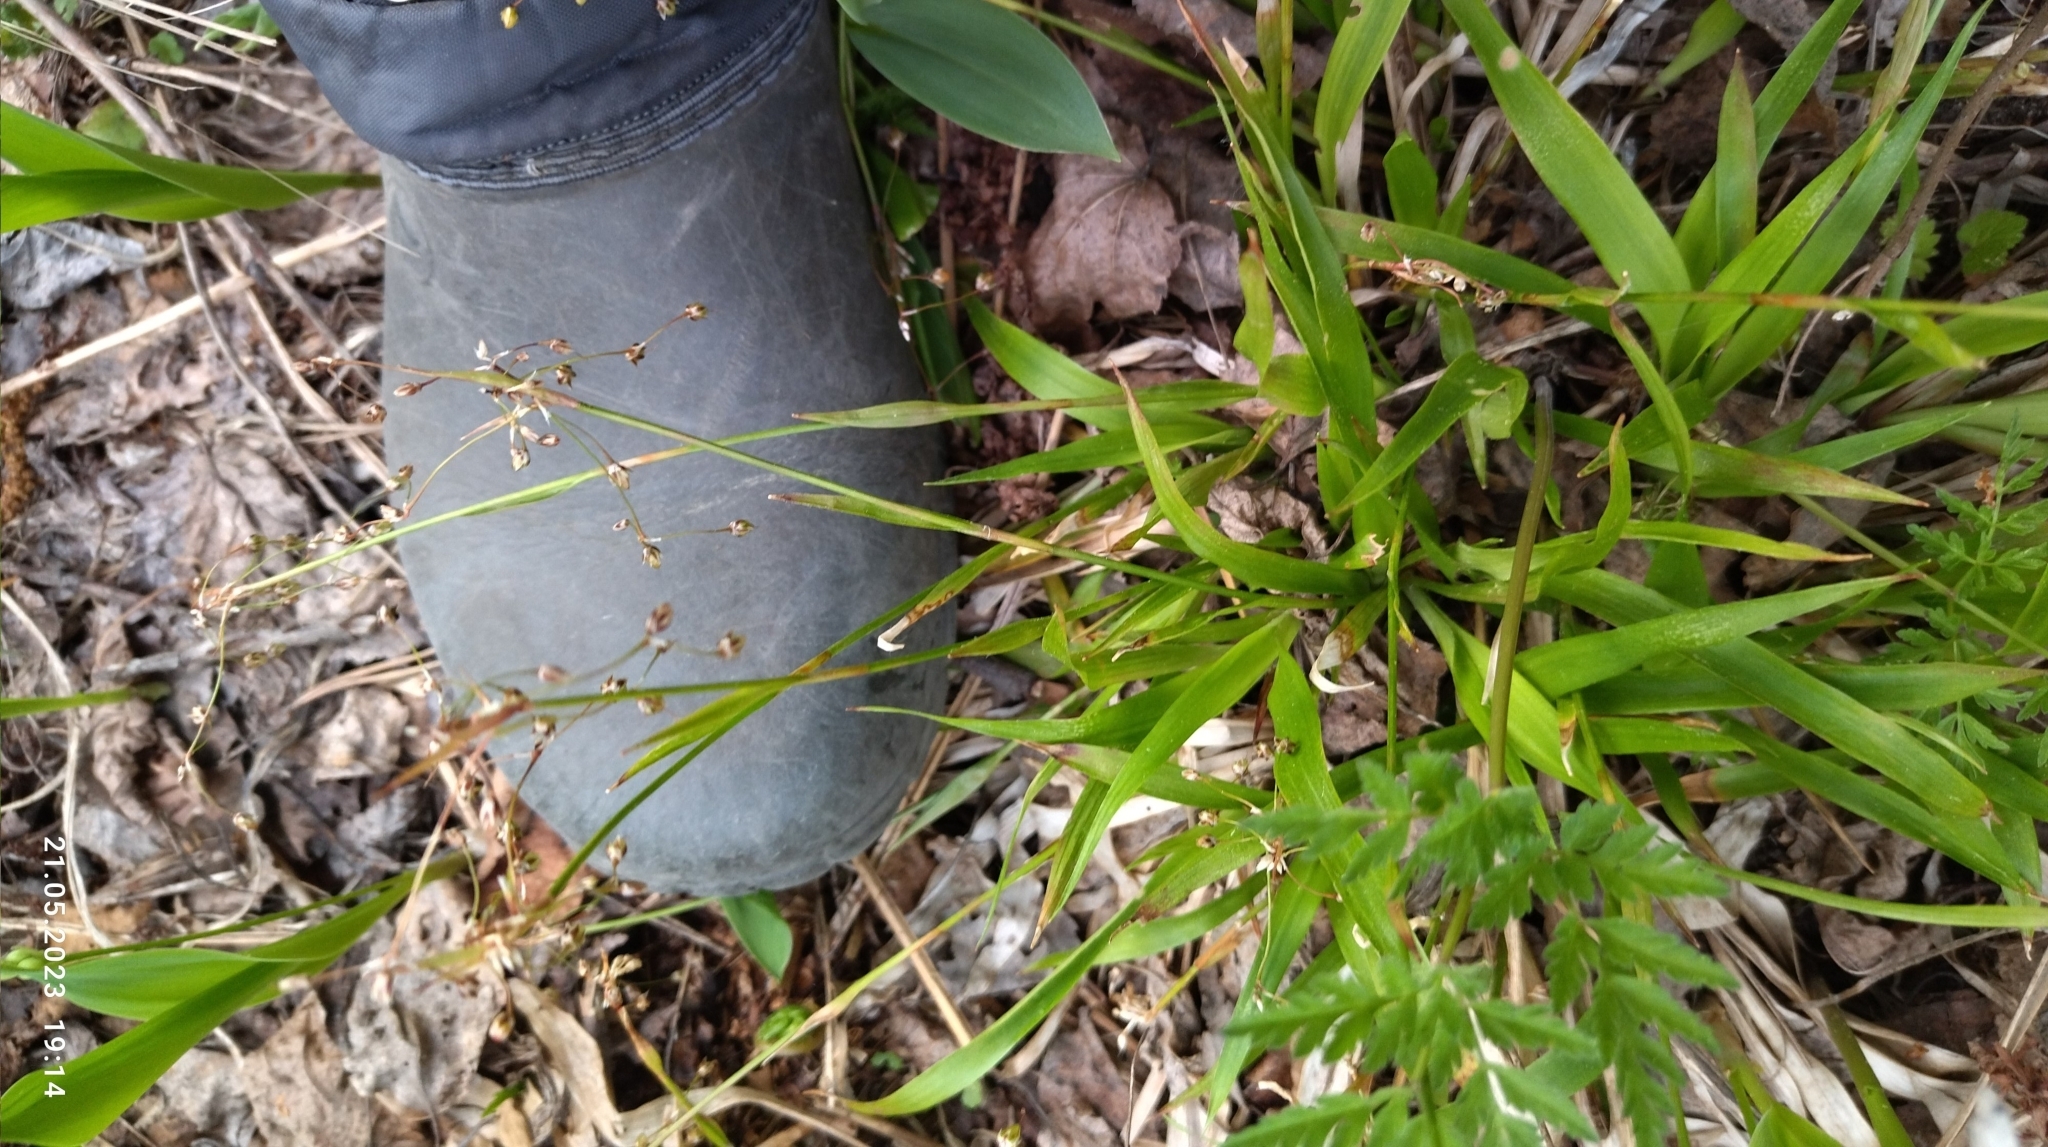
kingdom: Plantae
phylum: Tracheophyta
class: Liliopsida
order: Poales
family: Juncaceae
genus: Luzula
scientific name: Luzula pilosa
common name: Hairy wood-rush
